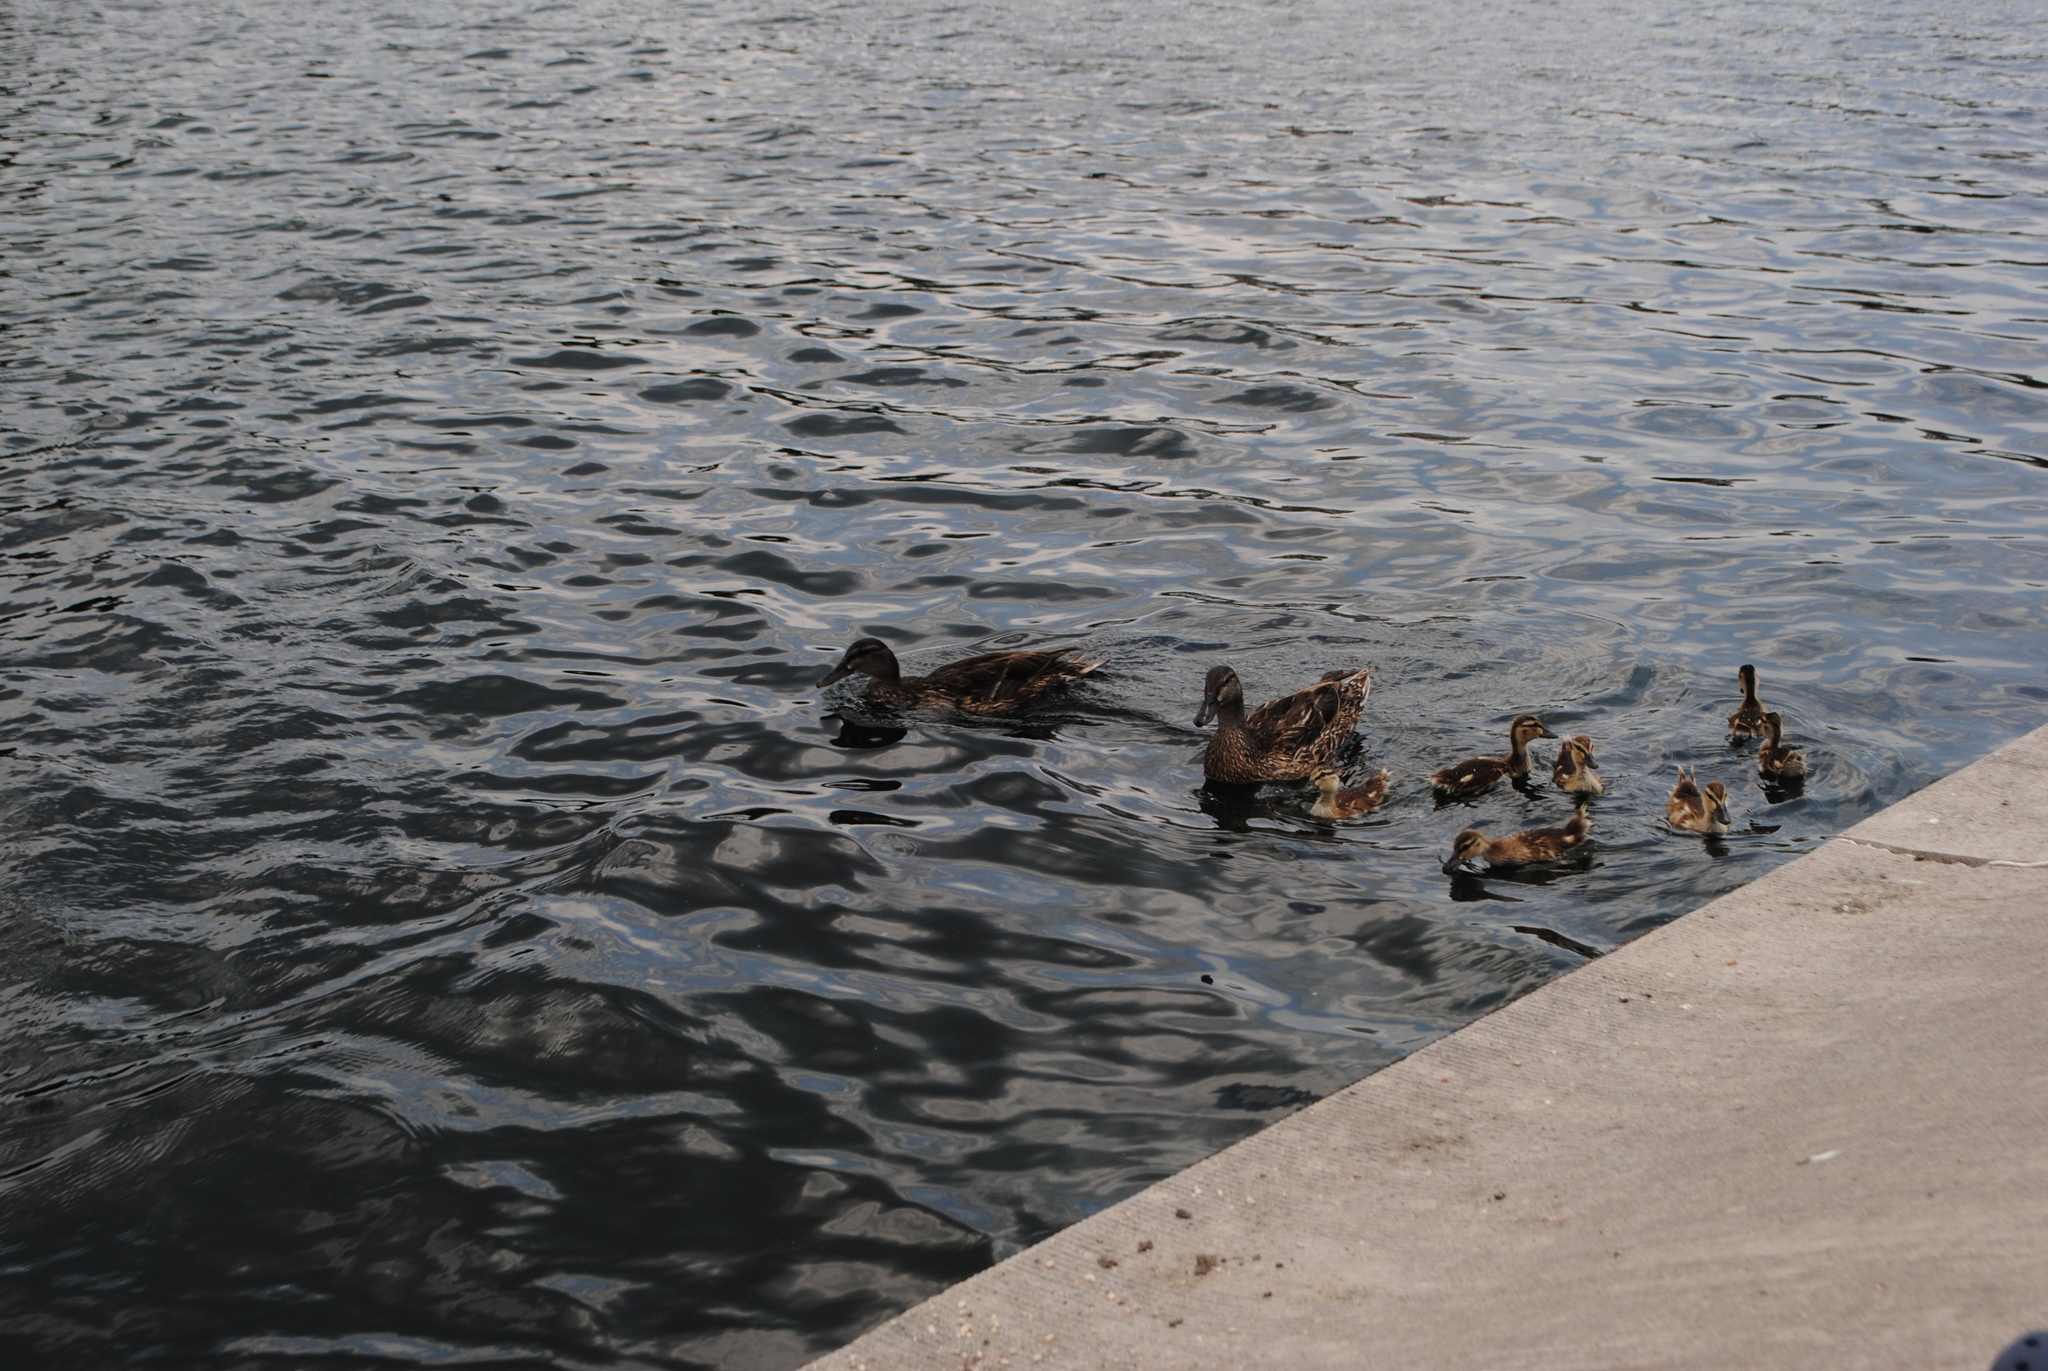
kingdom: Animalia
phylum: Chordata
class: Aves
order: Anseriformes
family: Anatidae
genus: Anas
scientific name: Anas platyrhynchos
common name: Mallard
